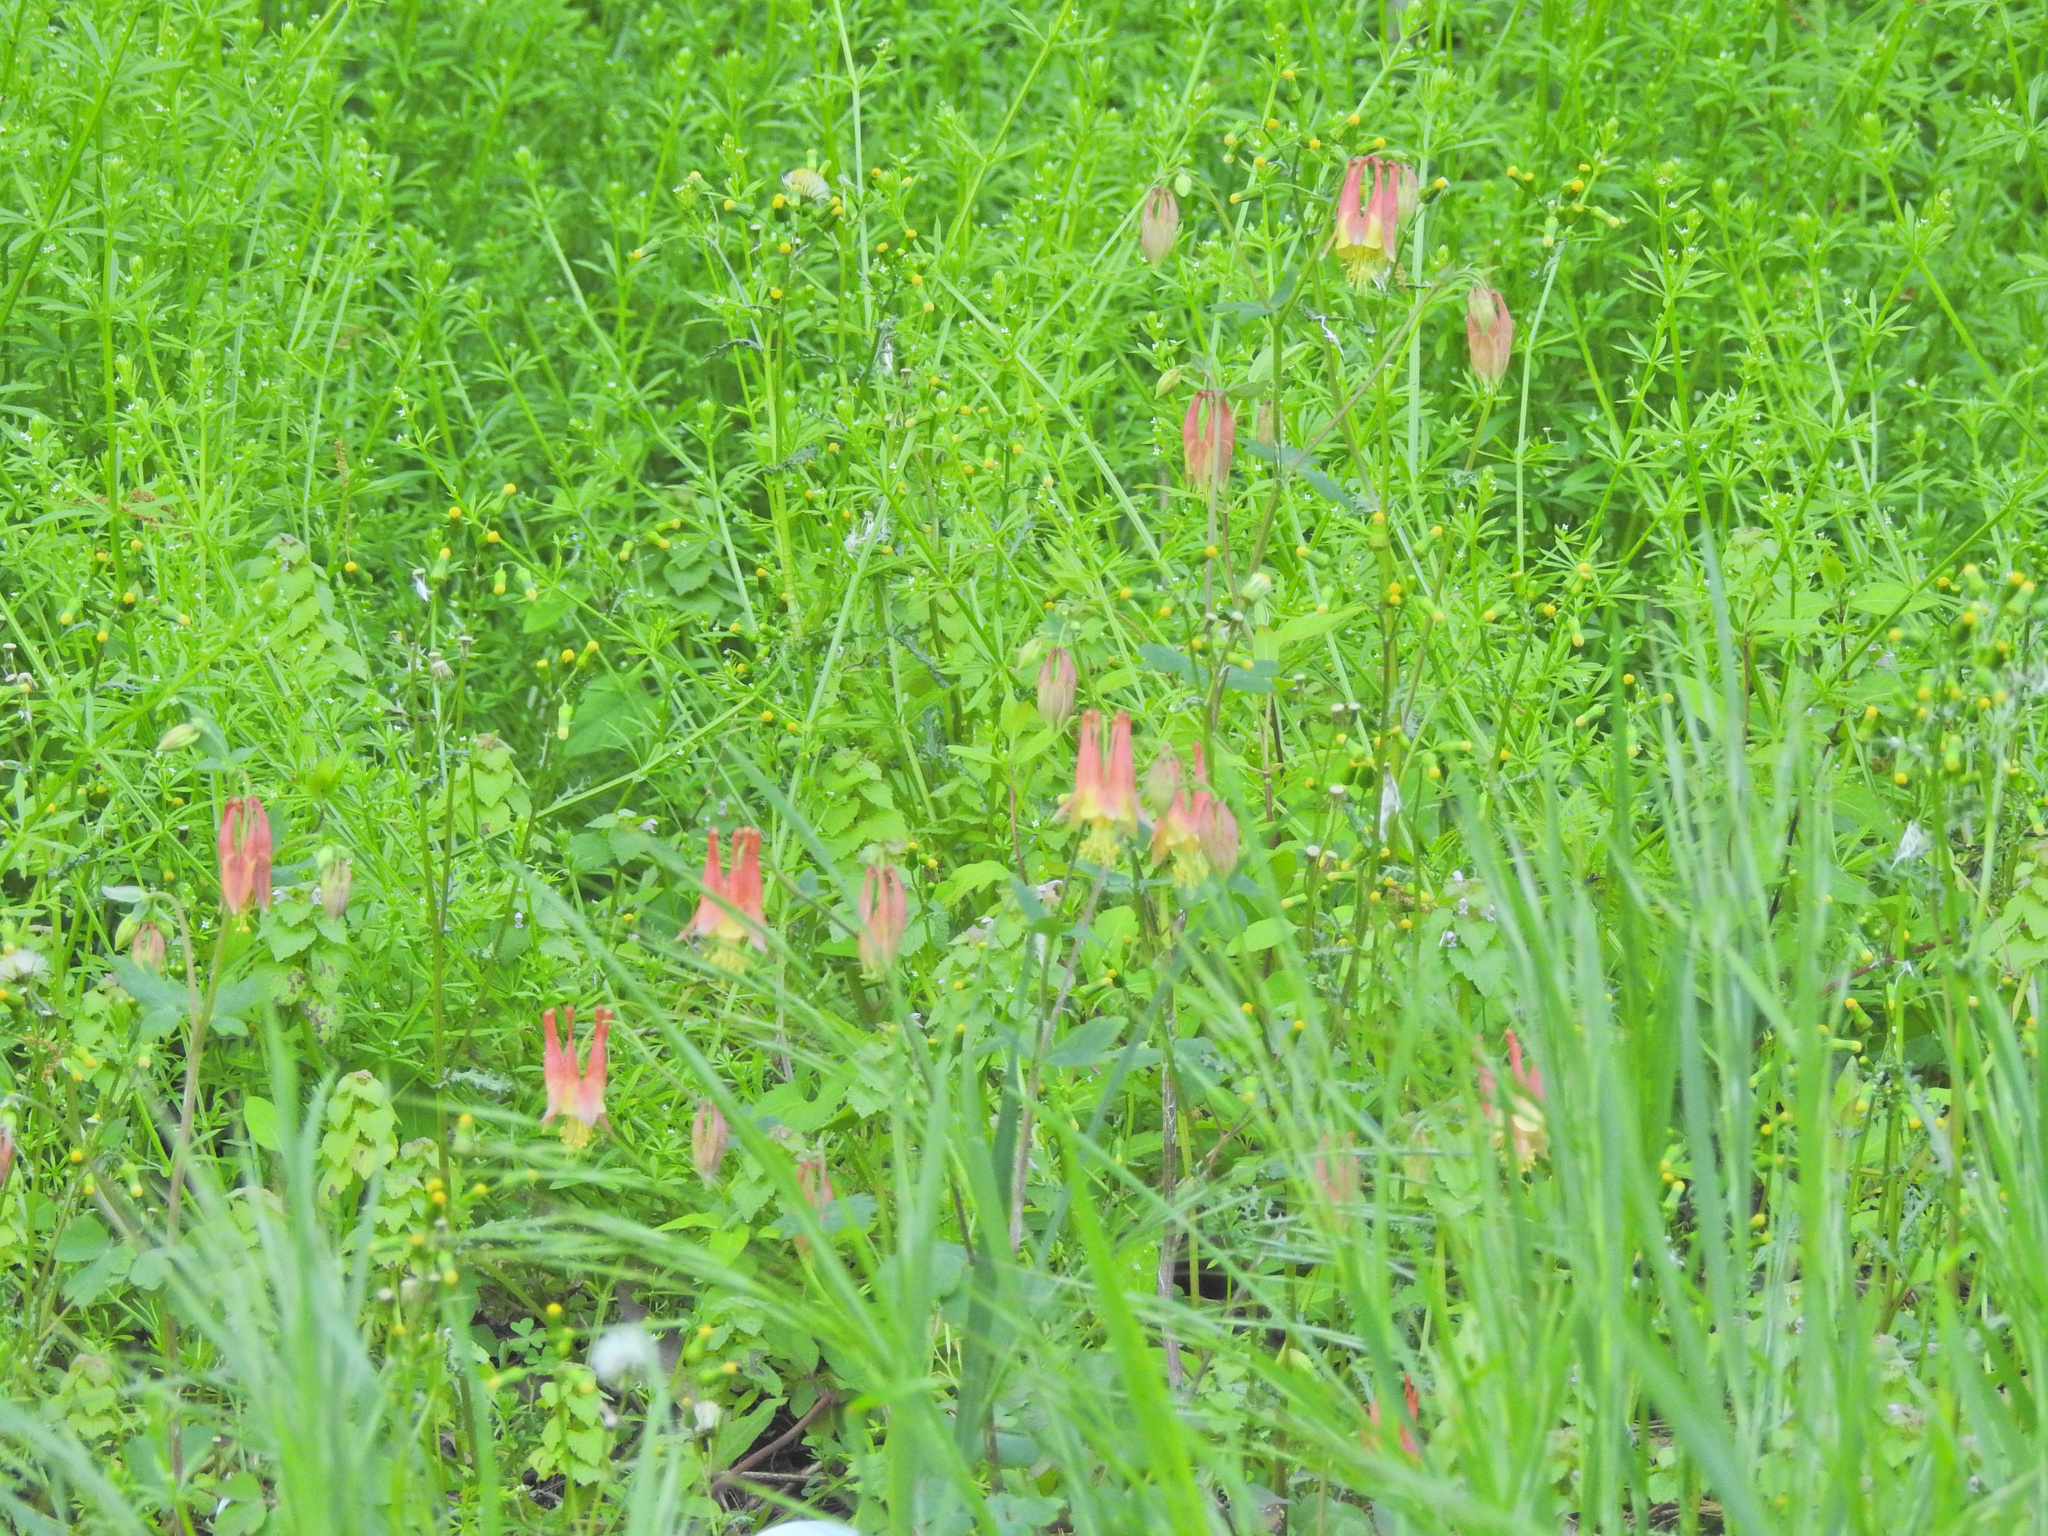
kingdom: Plantae
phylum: Tracheophyta
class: Magnoliopsida
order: Ranunculales
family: Ranunculaceae
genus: Aquilegia
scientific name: Aquilegia canadensis
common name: American columbine
